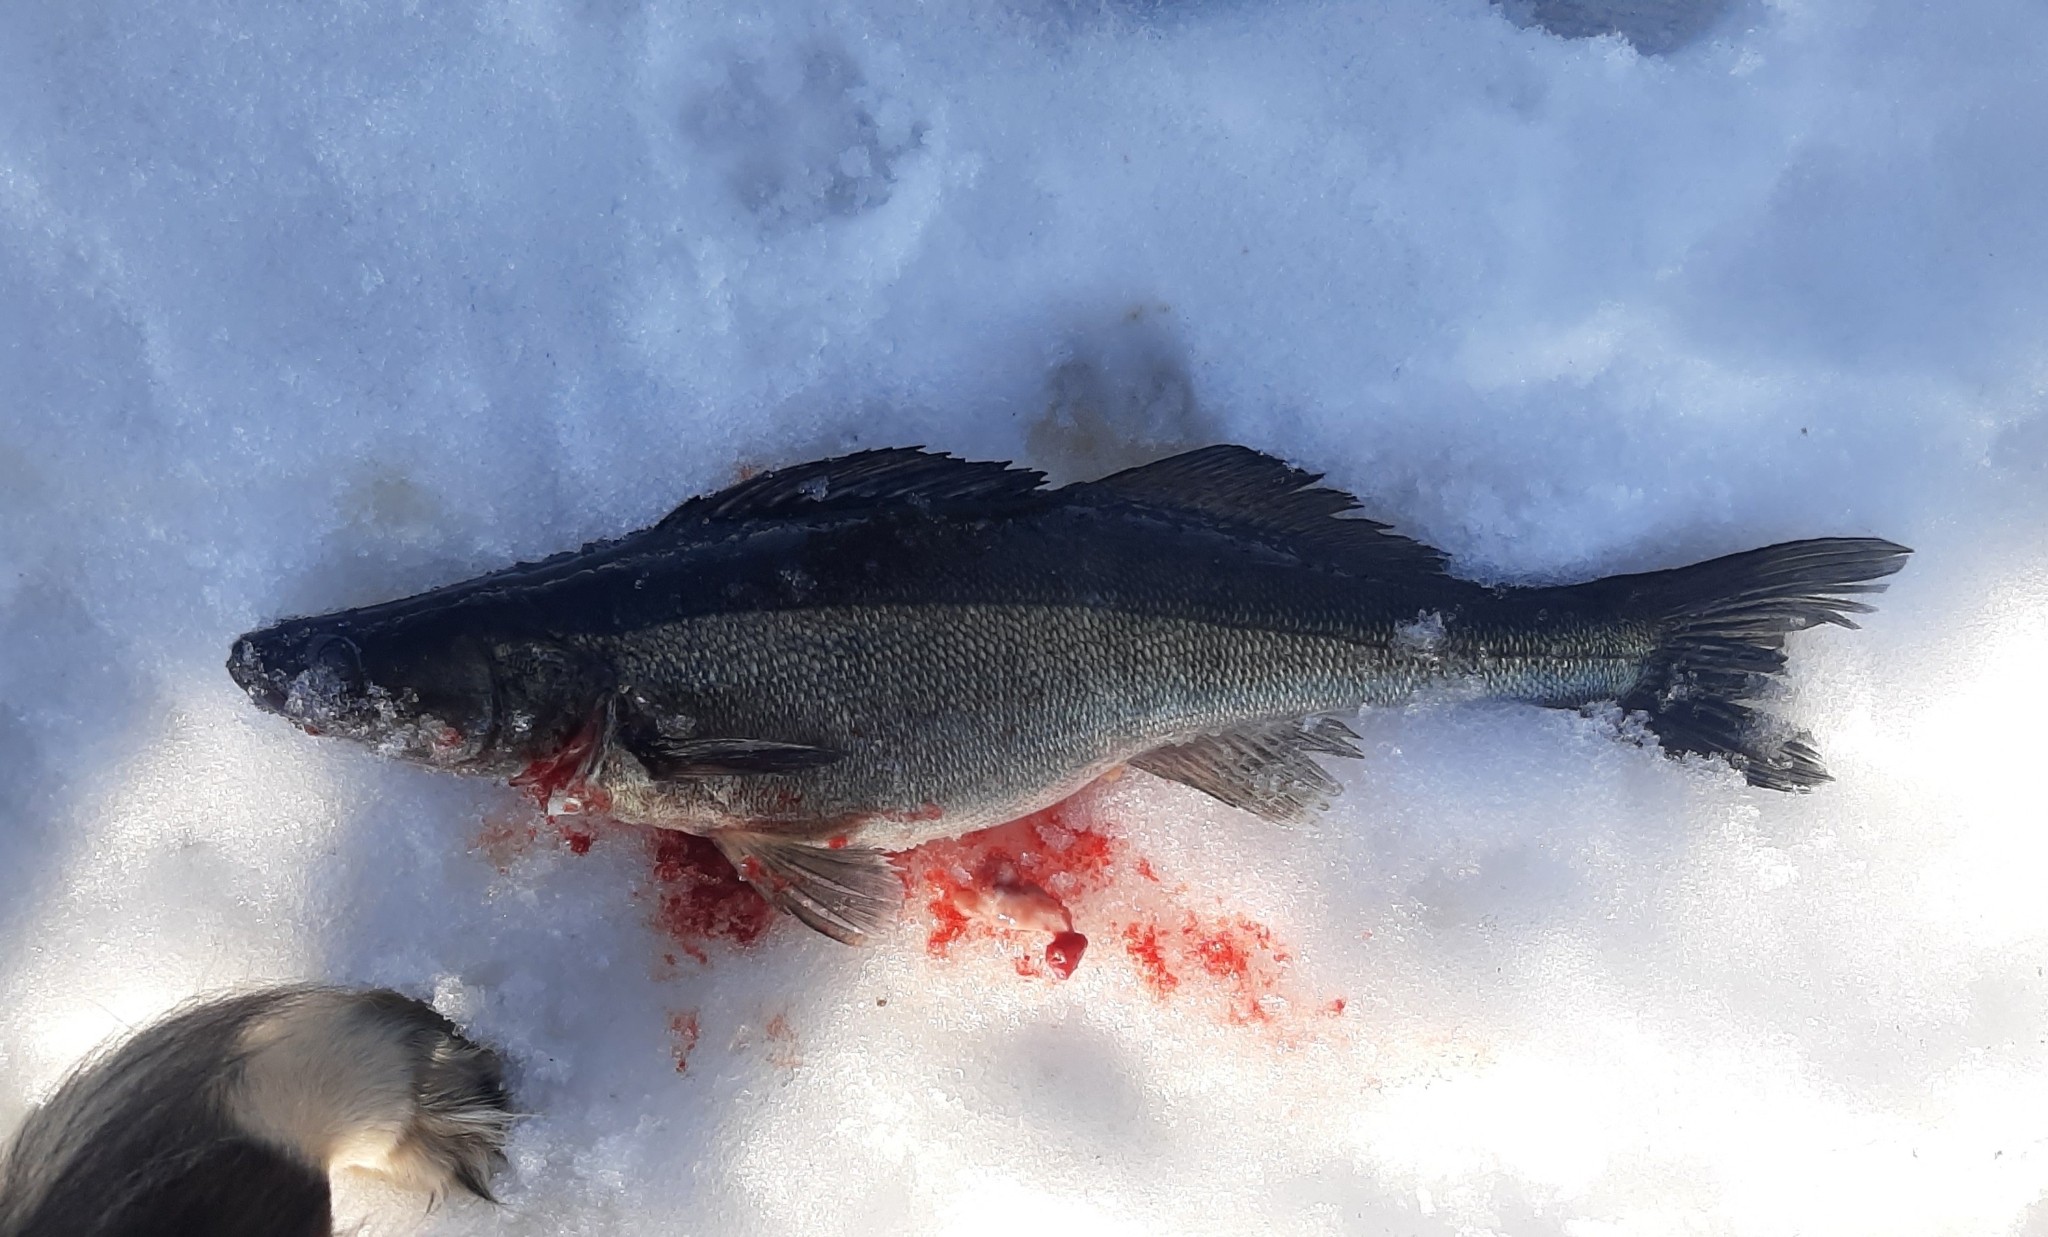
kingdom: Animalia
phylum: Chordata
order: Perciformes
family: Percidae
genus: Sander
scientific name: Sander lucioperca
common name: Pikeperch
